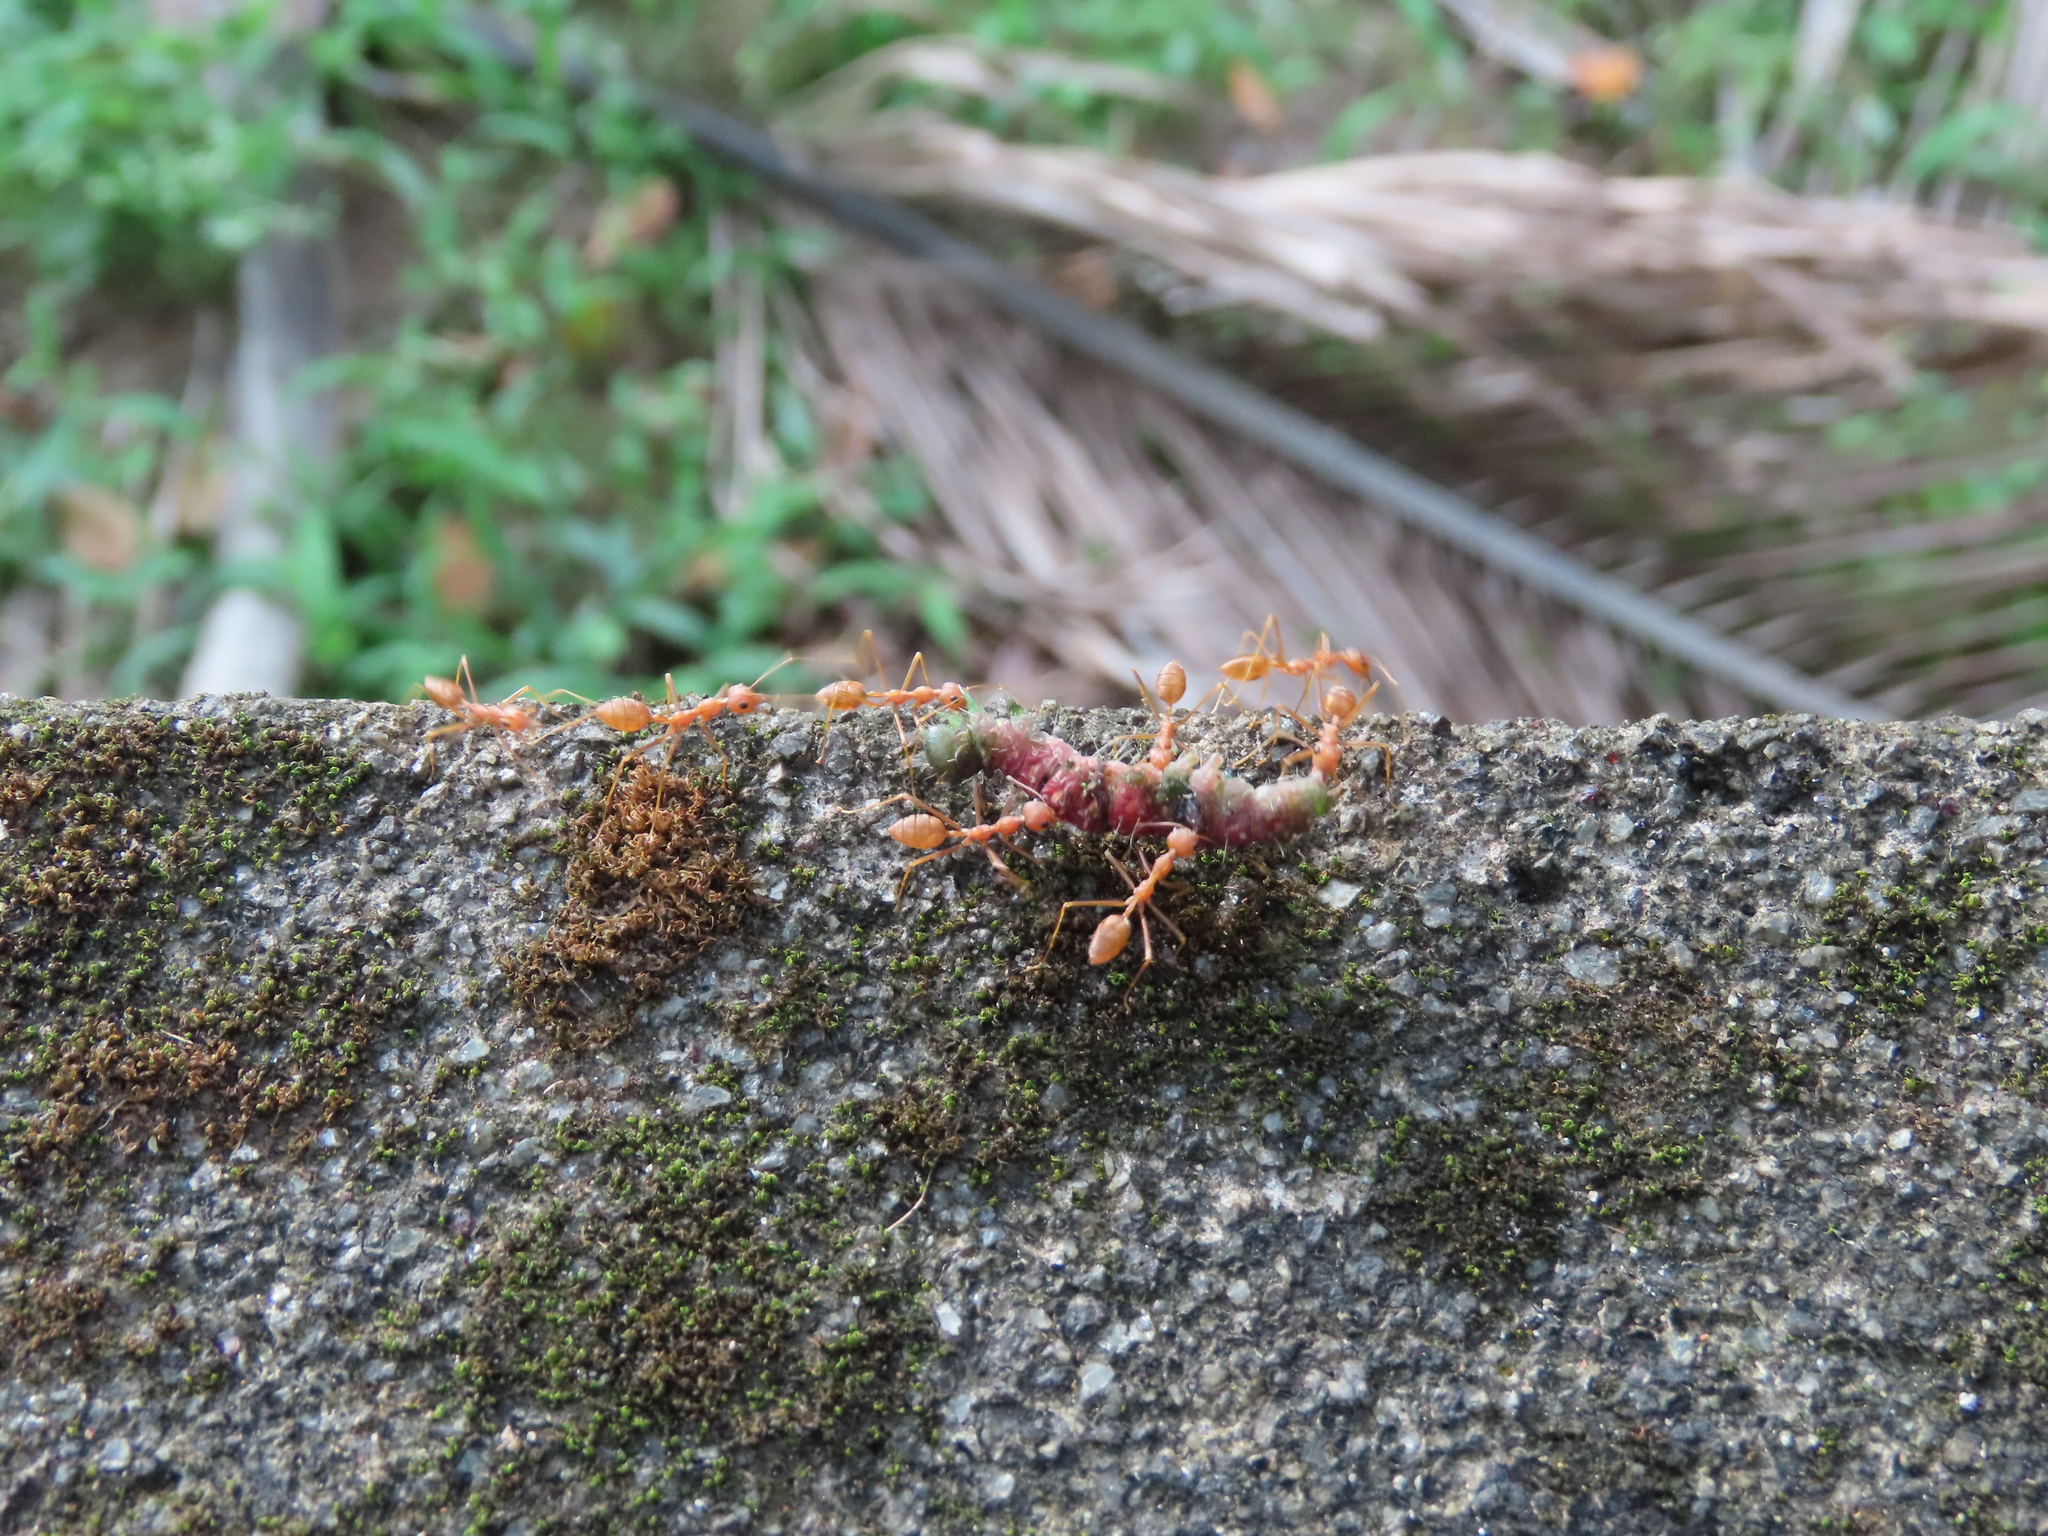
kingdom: Animalia
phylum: Arthropoda
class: Insecta
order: Hymenoptera
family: Formicidae
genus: Oecophylla
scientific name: Oecophylla smaragdina
